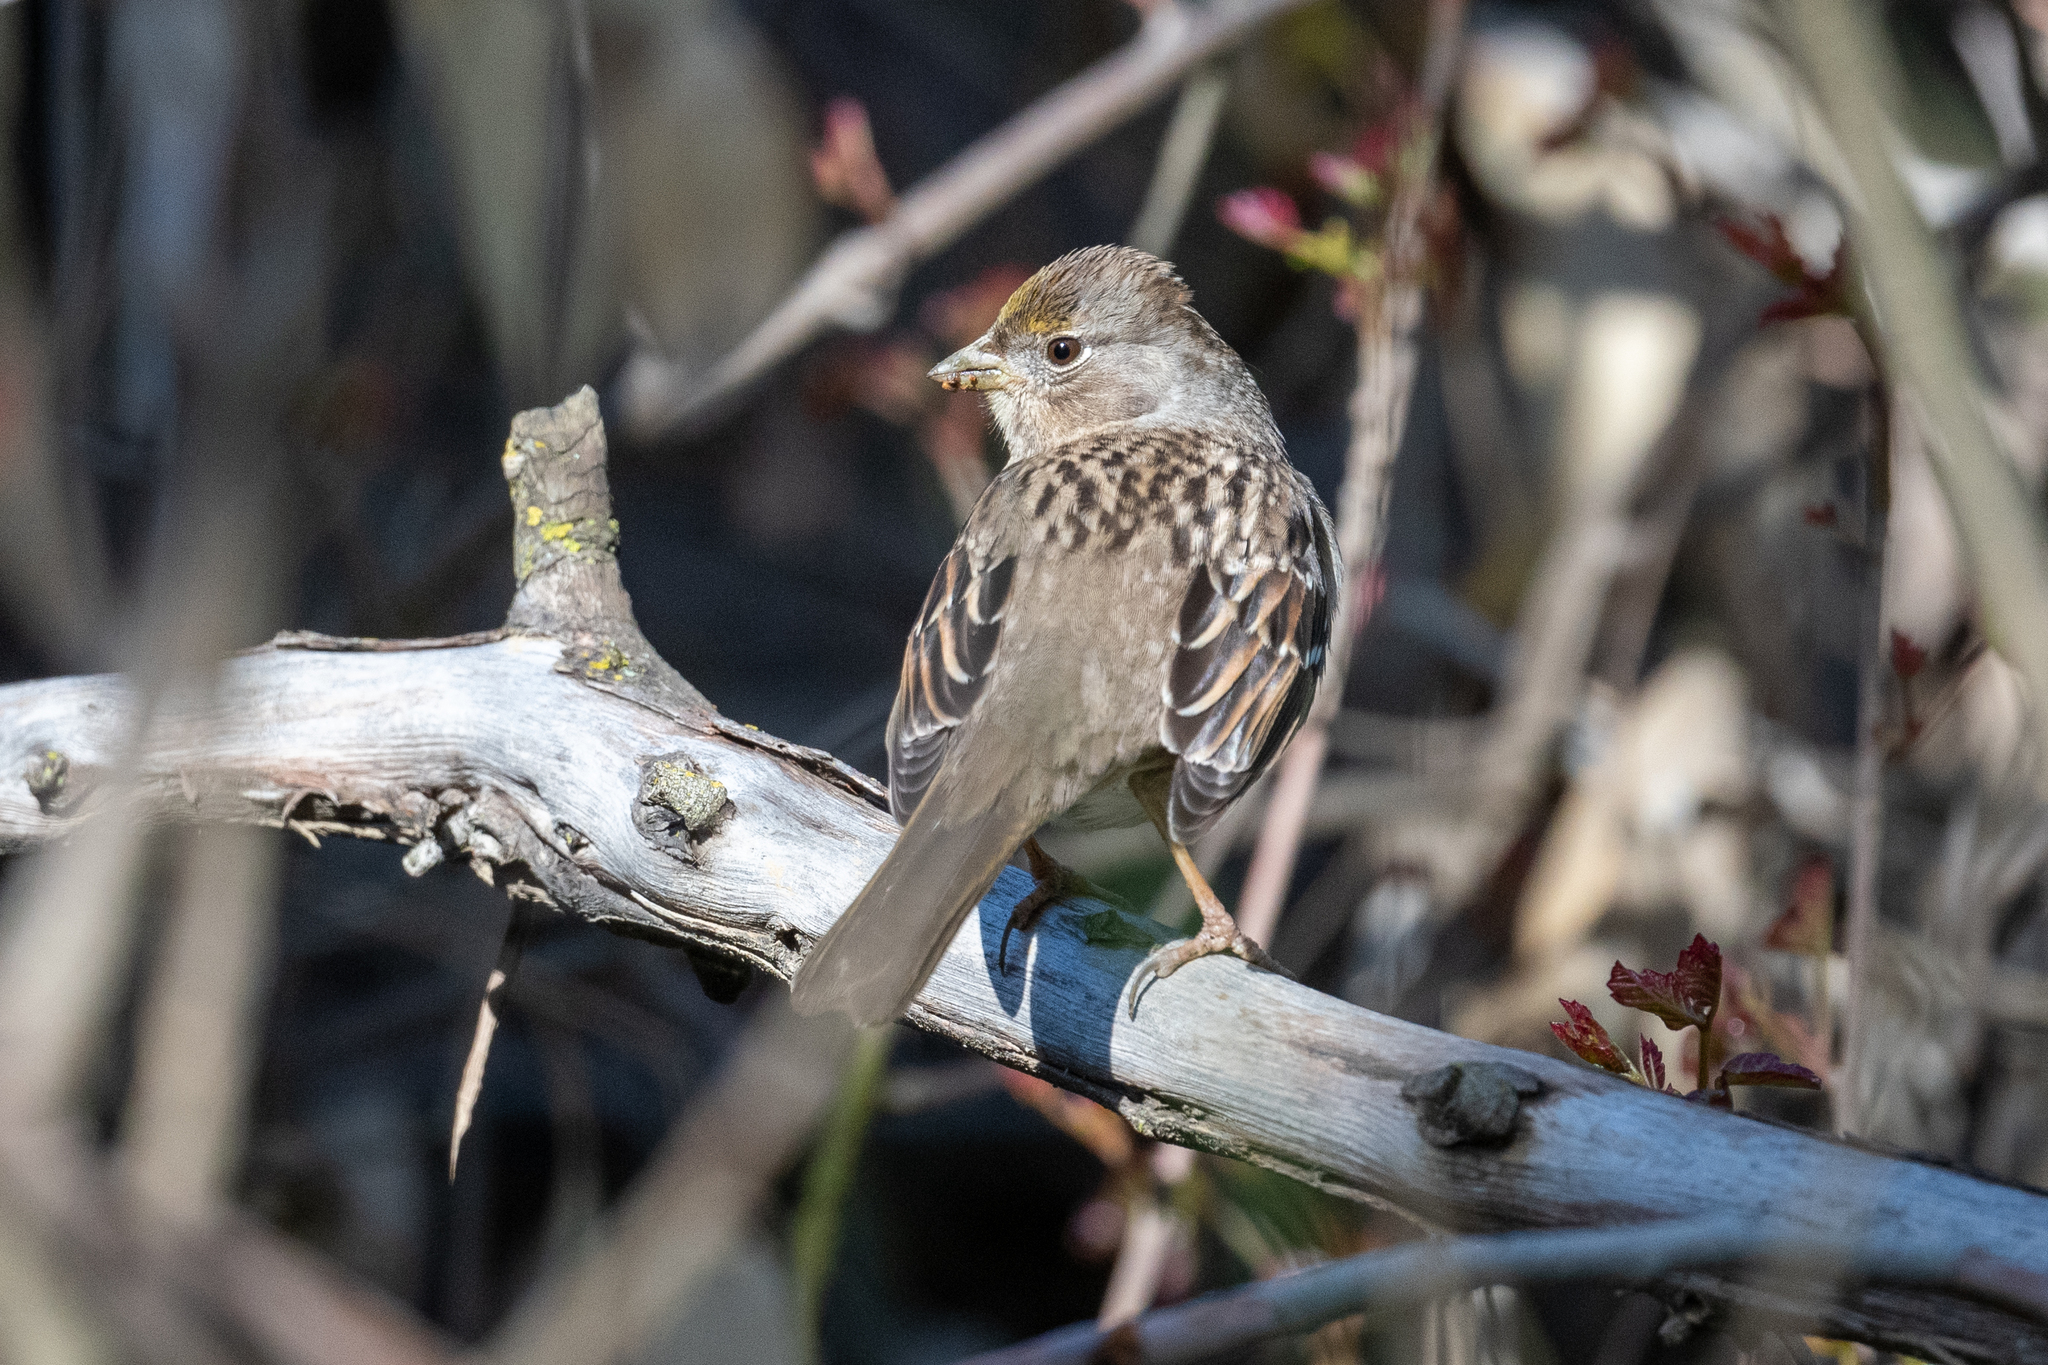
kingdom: Animalia
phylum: Chordata
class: Aves
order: Passeriformes
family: Passerellidae
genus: Zonotrichia
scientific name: Zonotrichia atricapilla
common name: Golden-crowned sparrow
